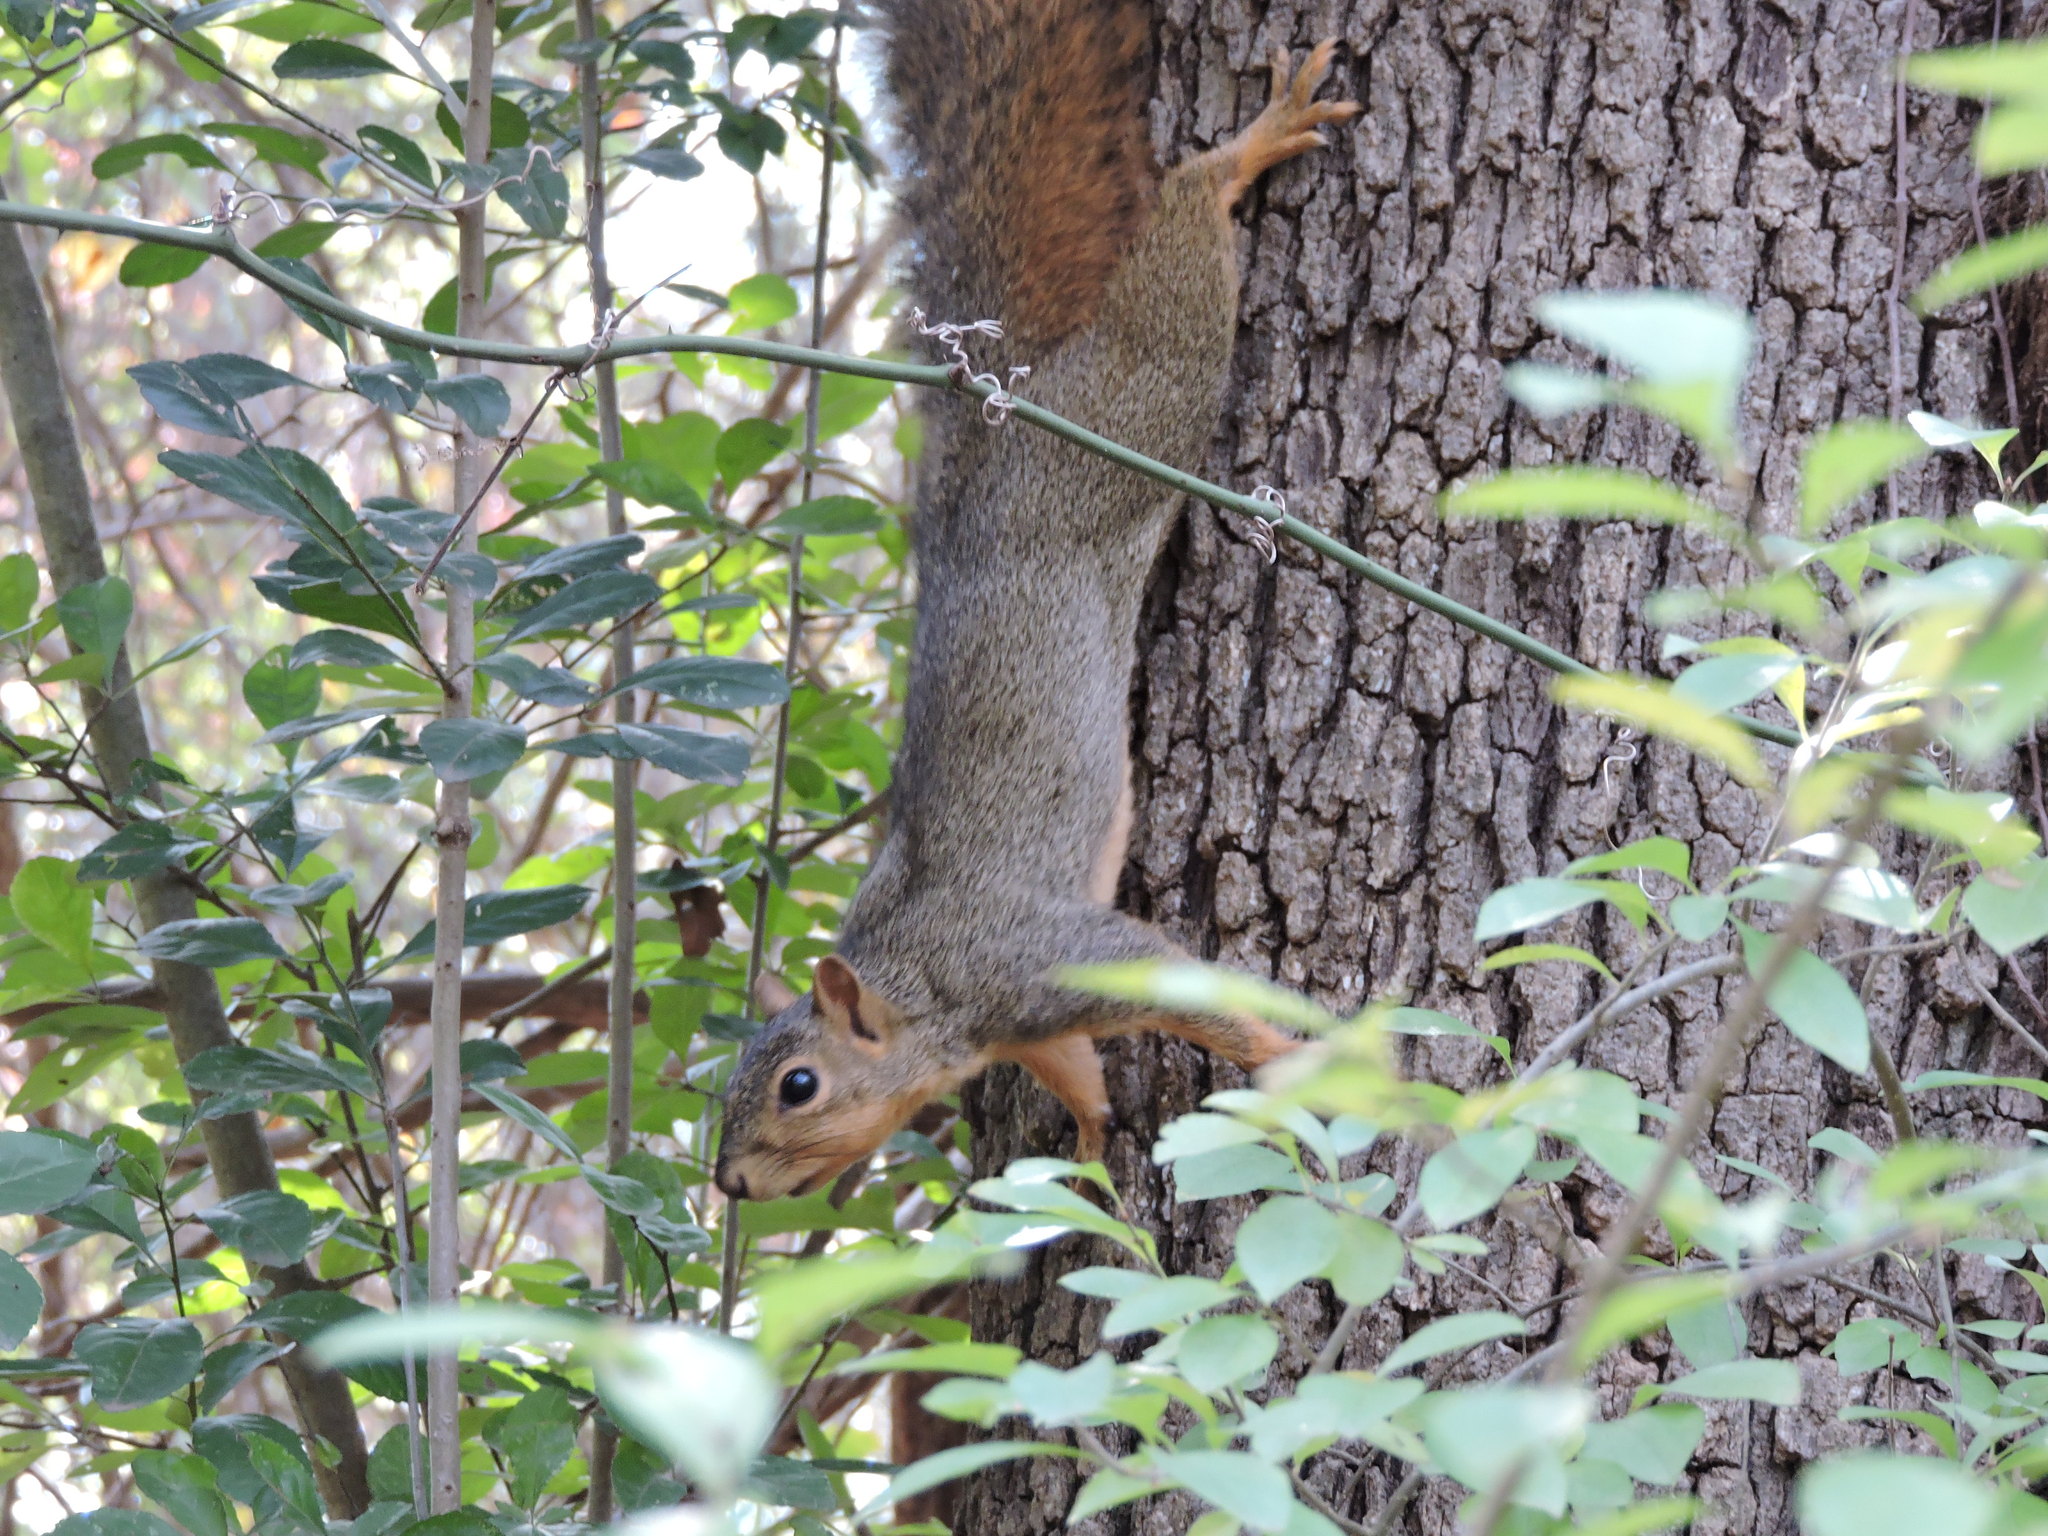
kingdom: Animalia
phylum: Chordata
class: Mammalia
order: Rodentia
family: Sciuridae
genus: Sciurus
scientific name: Sciurus niger
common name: Fox squirrel
